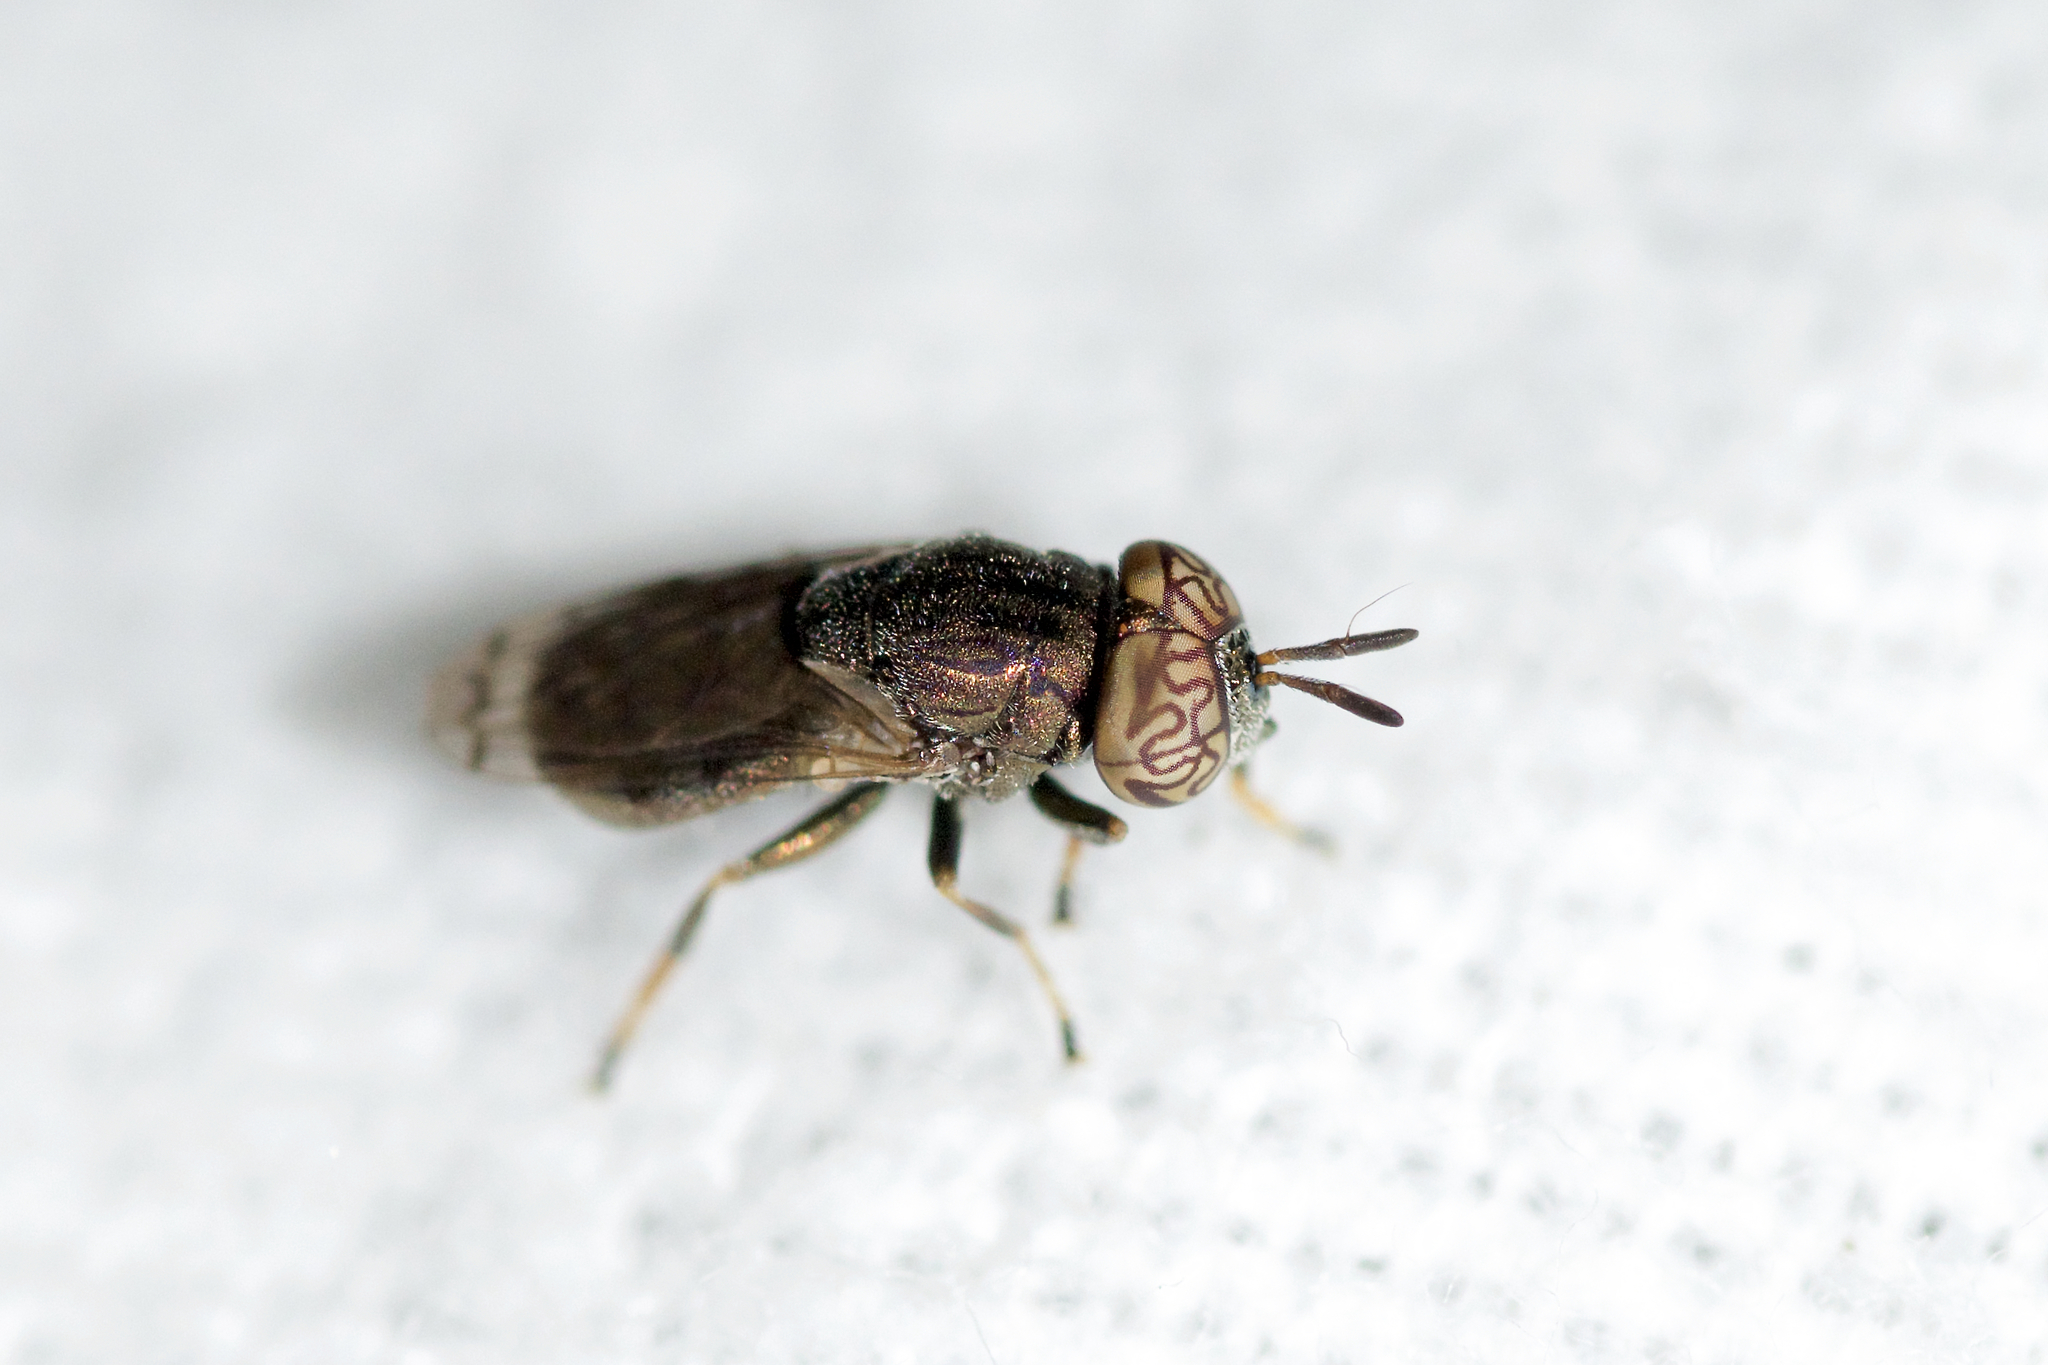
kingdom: Animalia
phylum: Arthropoda
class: Insecta
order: Diptera
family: Syrphidae
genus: Orthonevra
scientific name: Orthonevra nitida
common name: Wavy mucksucker
